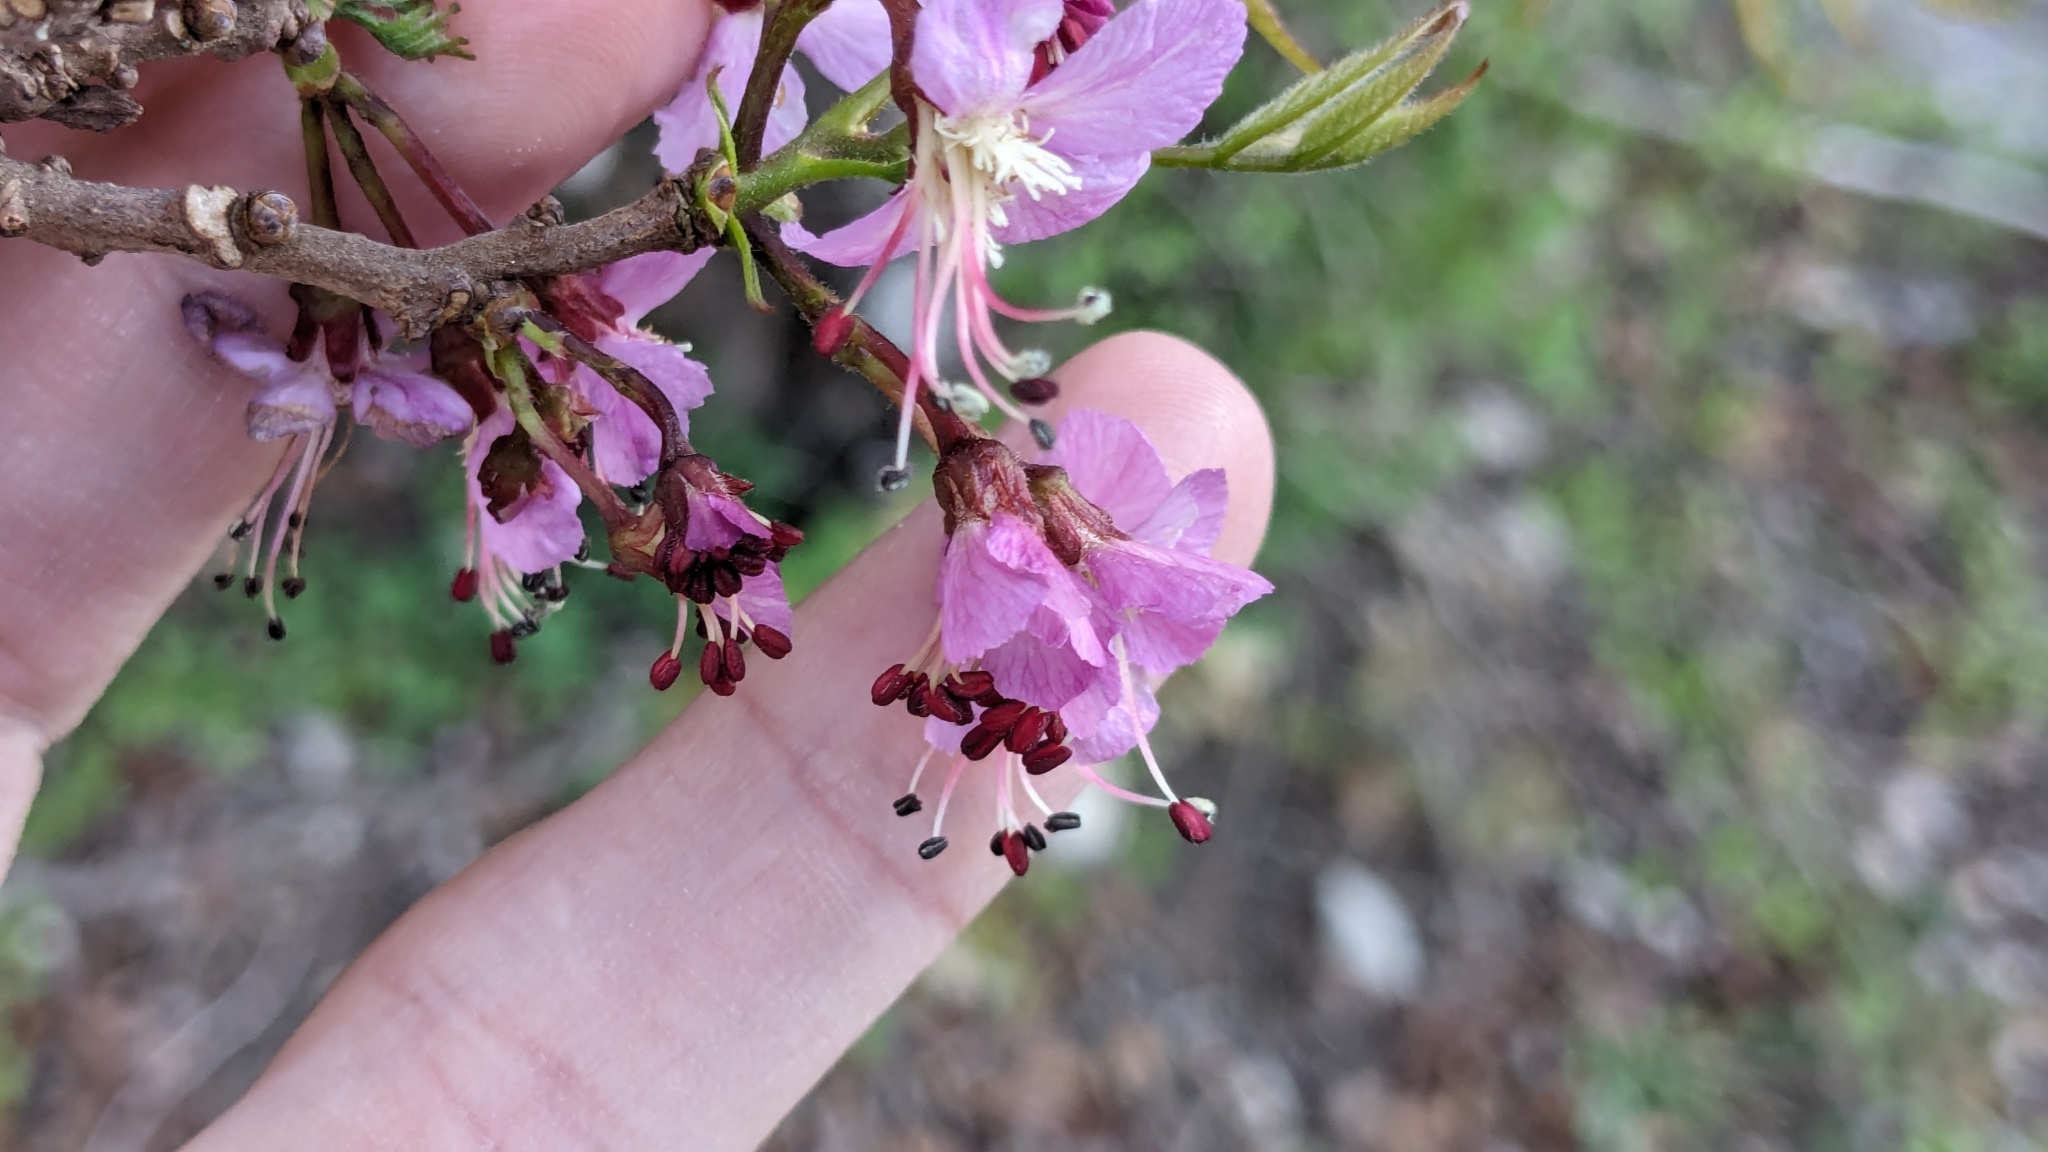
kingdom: Plantae
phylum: Tracheophyta
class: Magnoliopsida
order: Sapindales
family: Sapindaceae
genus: Ungnadia
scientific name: Ungnadia speciosa
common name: Texas-buckeye
